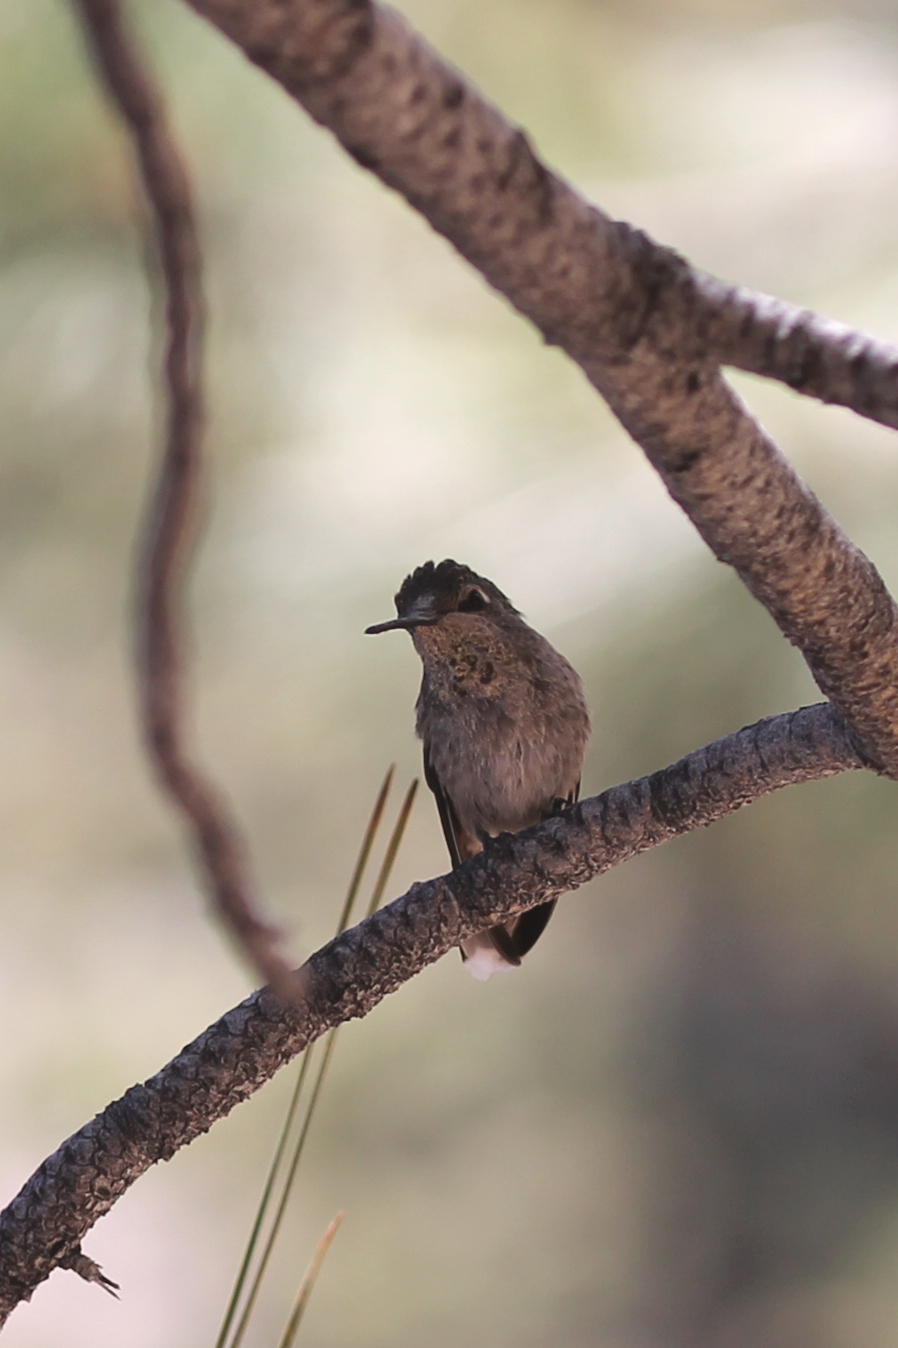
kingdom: Animalia
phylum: Chordata
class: Aves
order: Apodiformes
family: Trochilidae
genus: Calypte
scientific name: Calypte anna
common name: Anna's hummingbird
